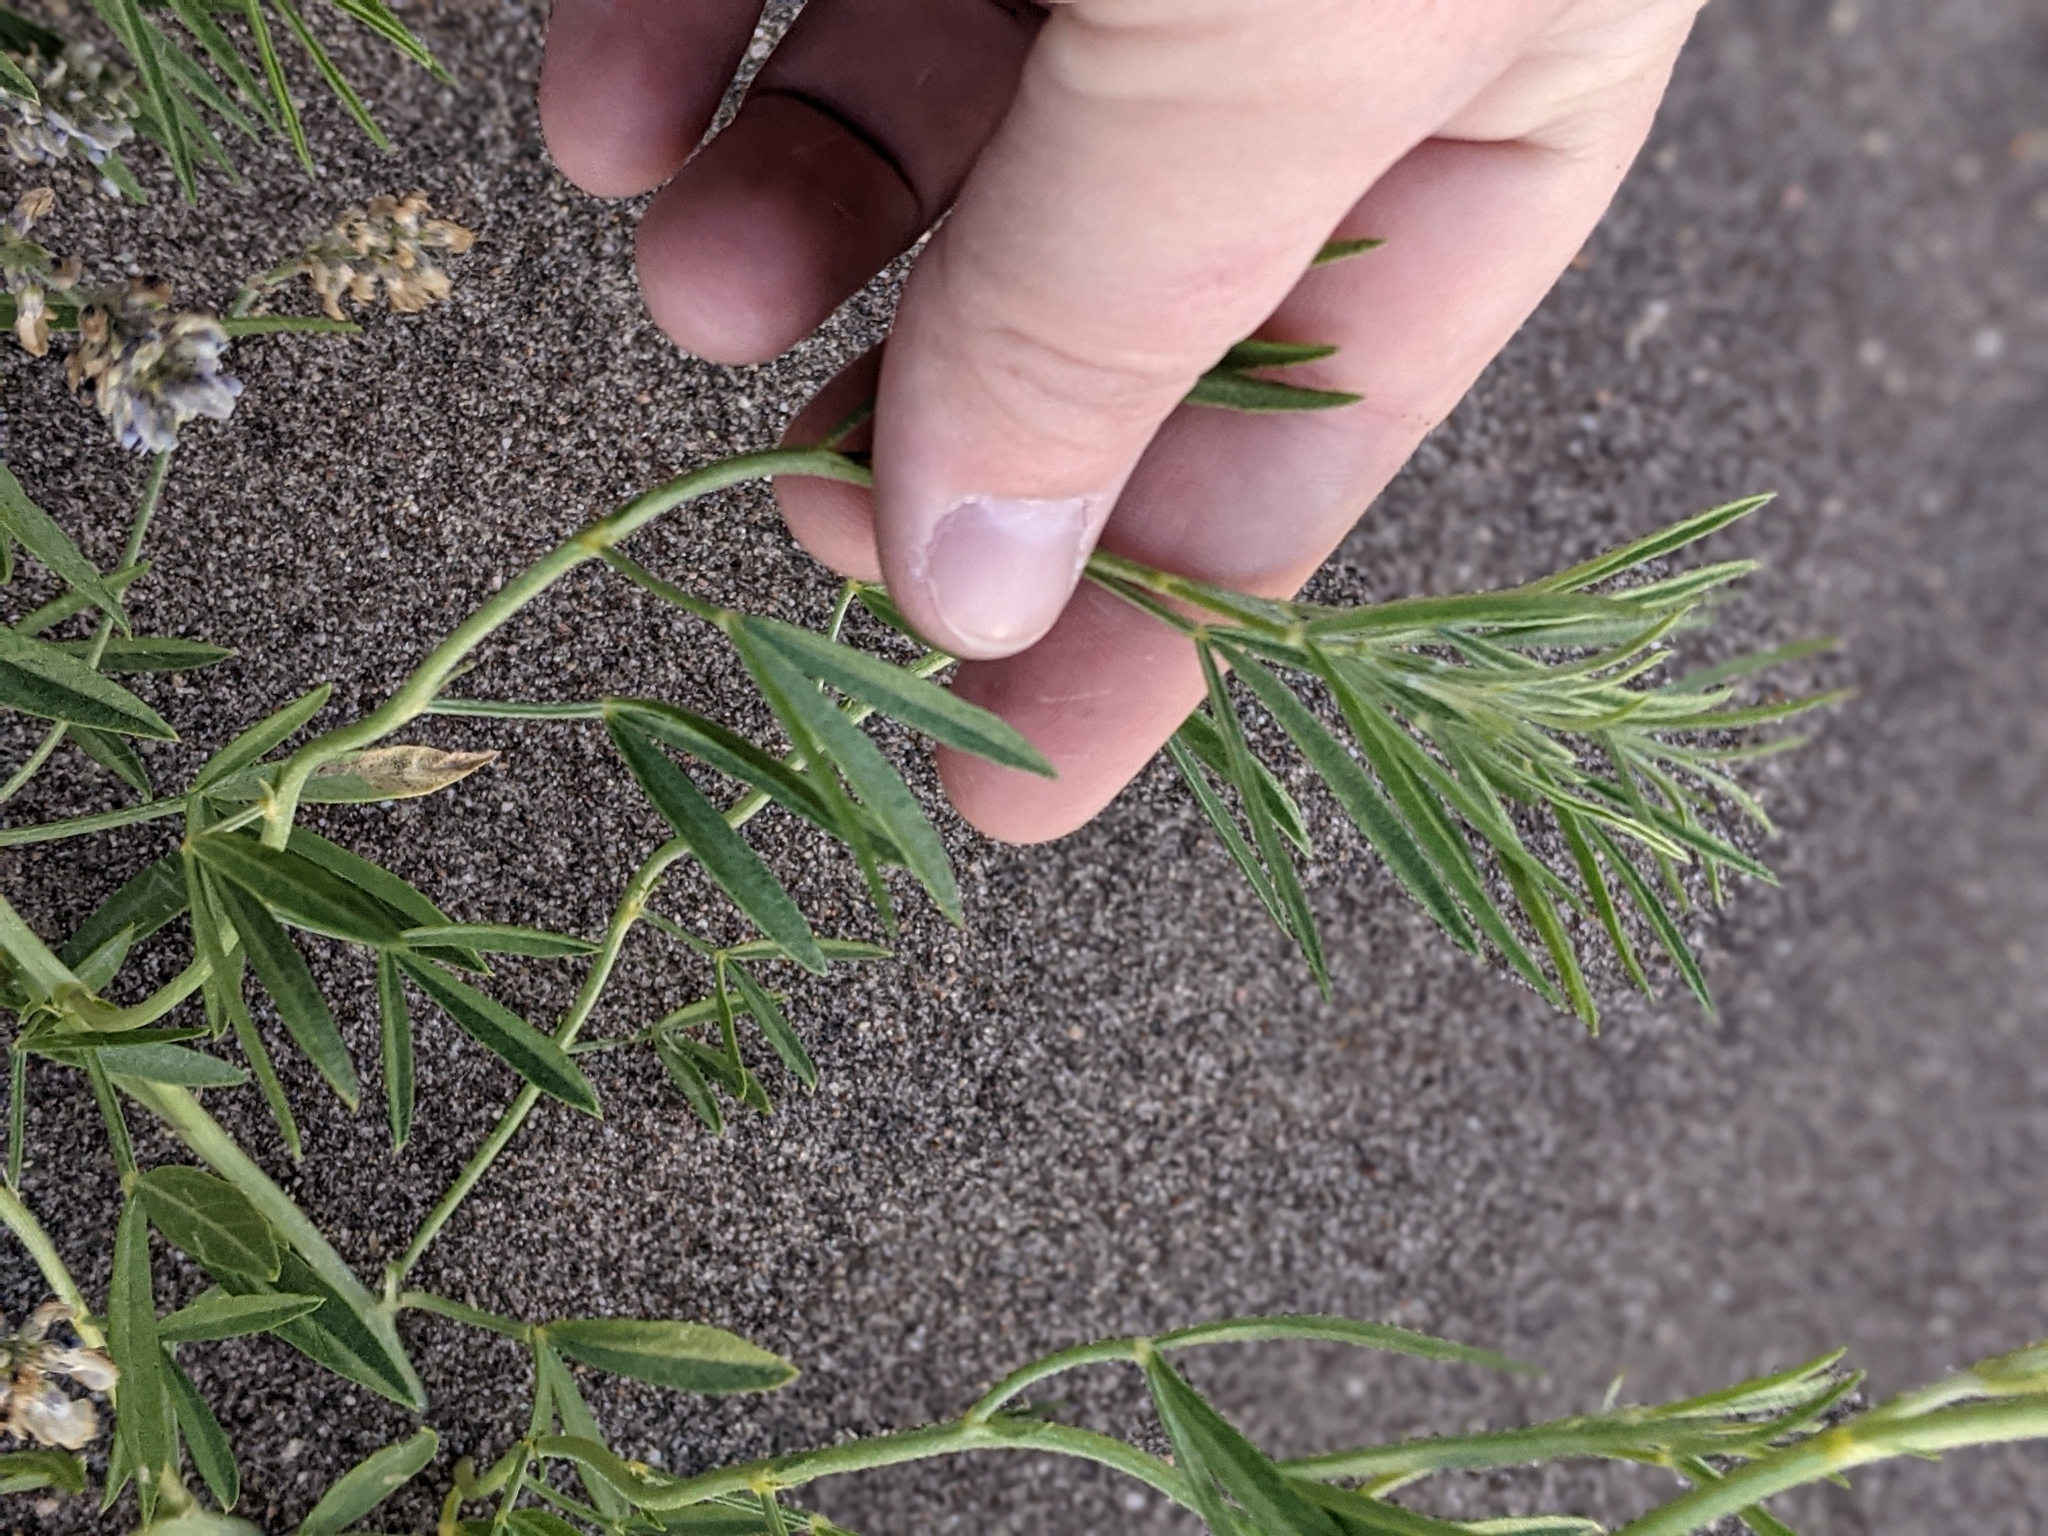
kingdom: Plantae
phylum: Tracheophyta
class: Magnoliopsida
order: Fabales
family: Fabaceae
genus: Ladeania
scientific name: Ladeania lanceolata
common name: Dune scurf-pea
